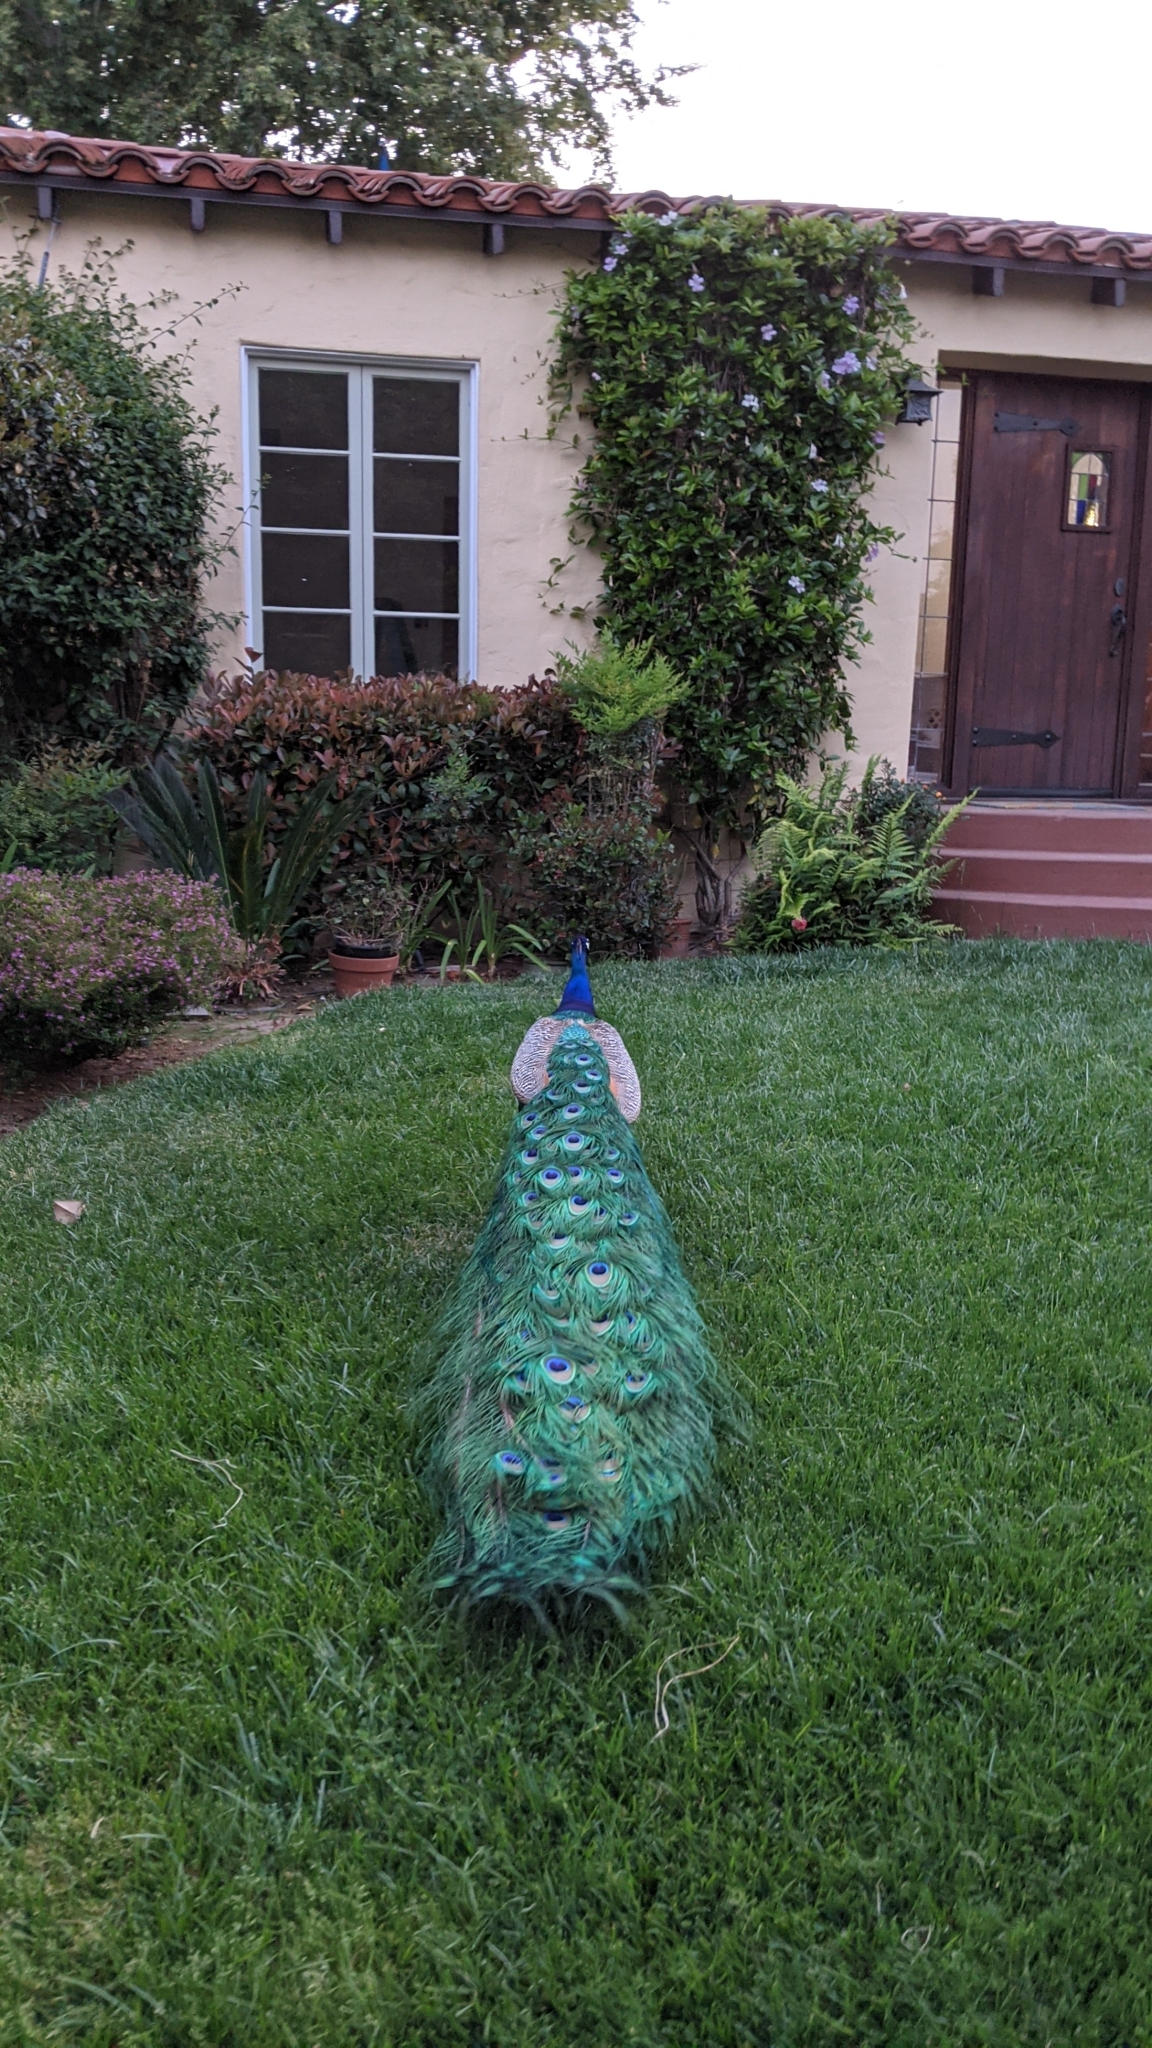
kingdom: Animalia
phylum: Chordata
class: Aves
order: Galliformes
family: Phasianidae
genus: Pavo
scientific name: Pavo cristatus
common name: Indian peafowl
